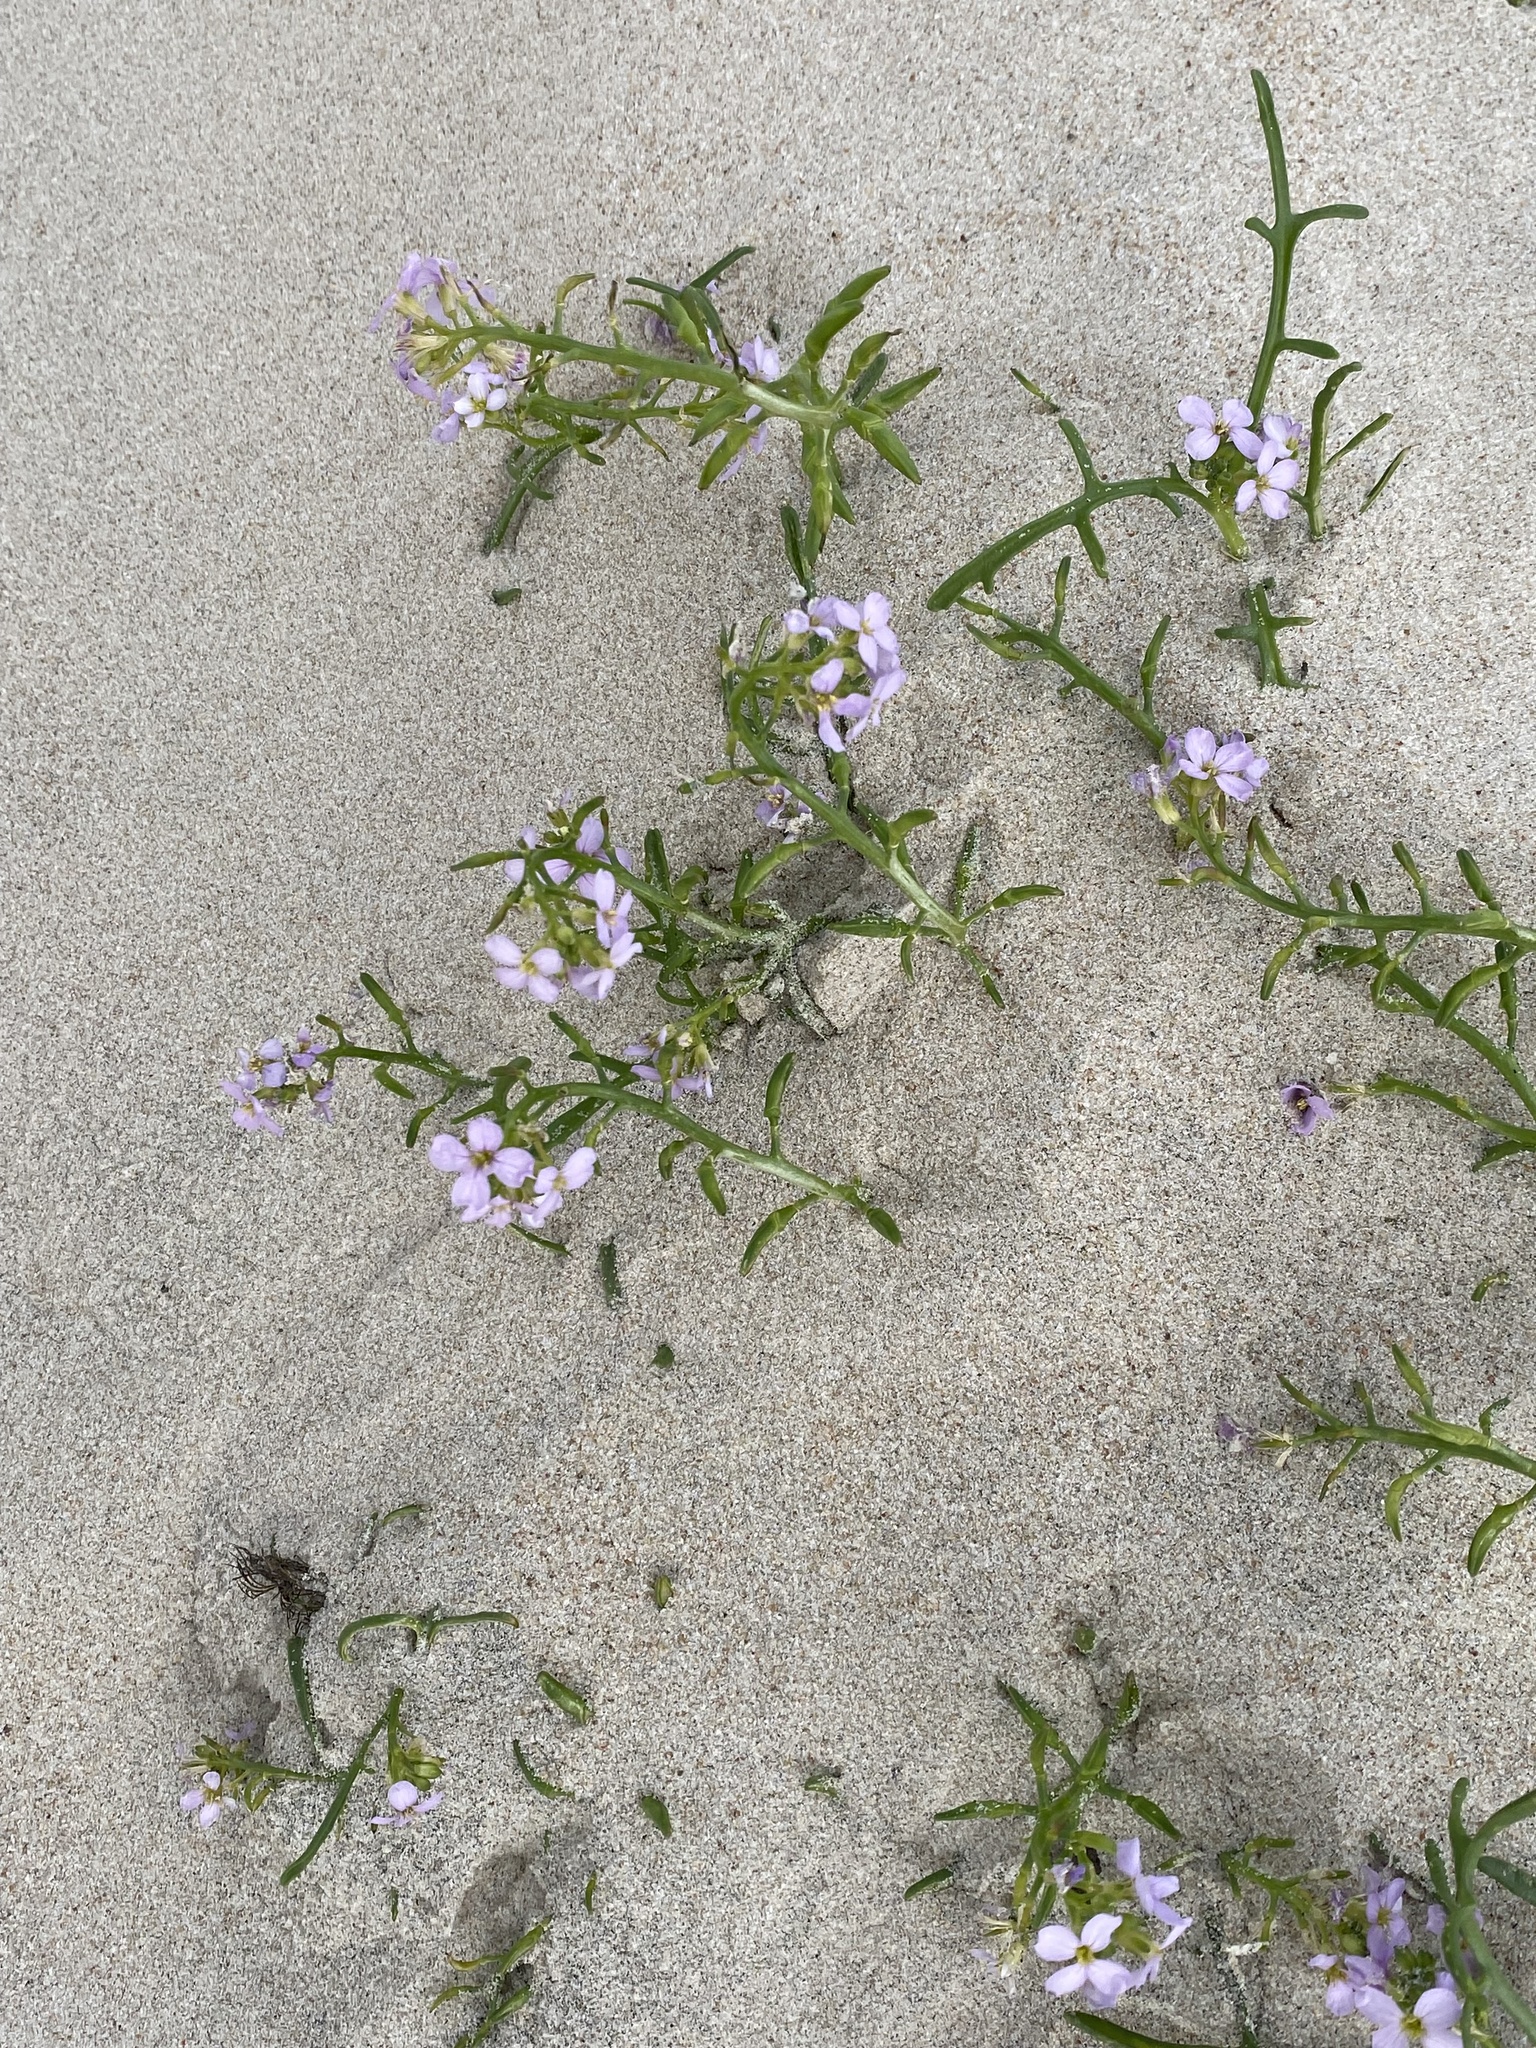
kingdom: Plantae
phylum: Tracheophyta
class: Magnoliopsida
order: Brassicales
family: Brassicaceae
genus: Cakile
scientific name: Cakile maritima
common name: Sea rocket
